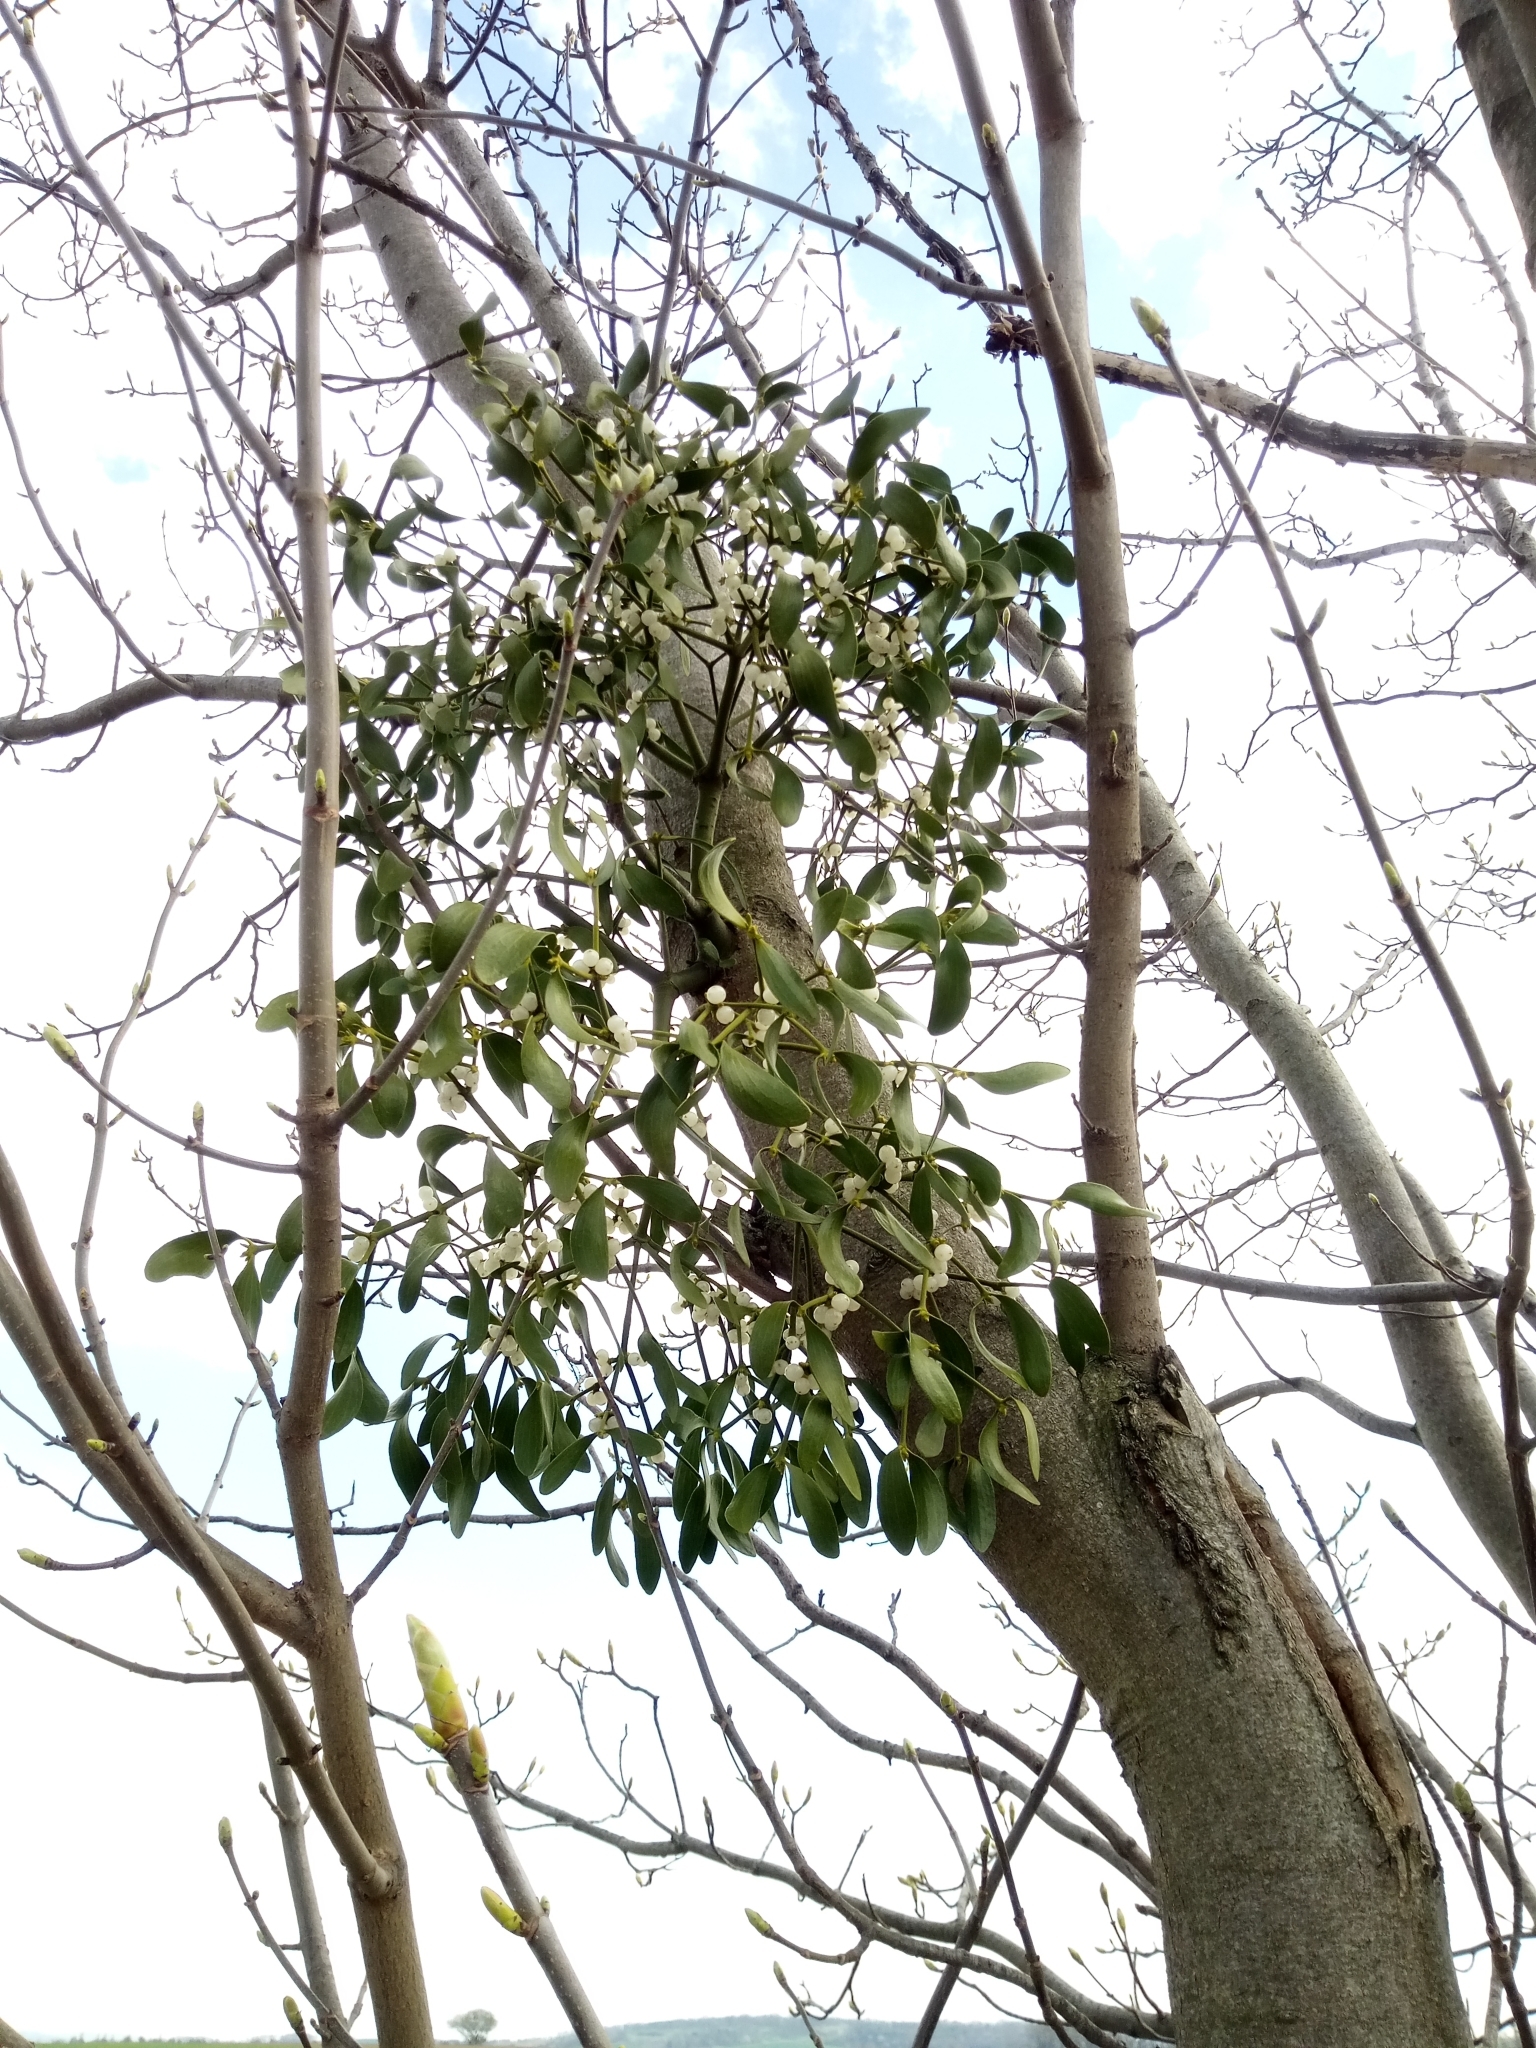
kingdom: Plantae
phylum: Tracheophyta
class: Magnoliopsida
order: Santalales
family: Viscaceae
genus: Viscum
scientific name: Viscum album
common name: Mistletoe
